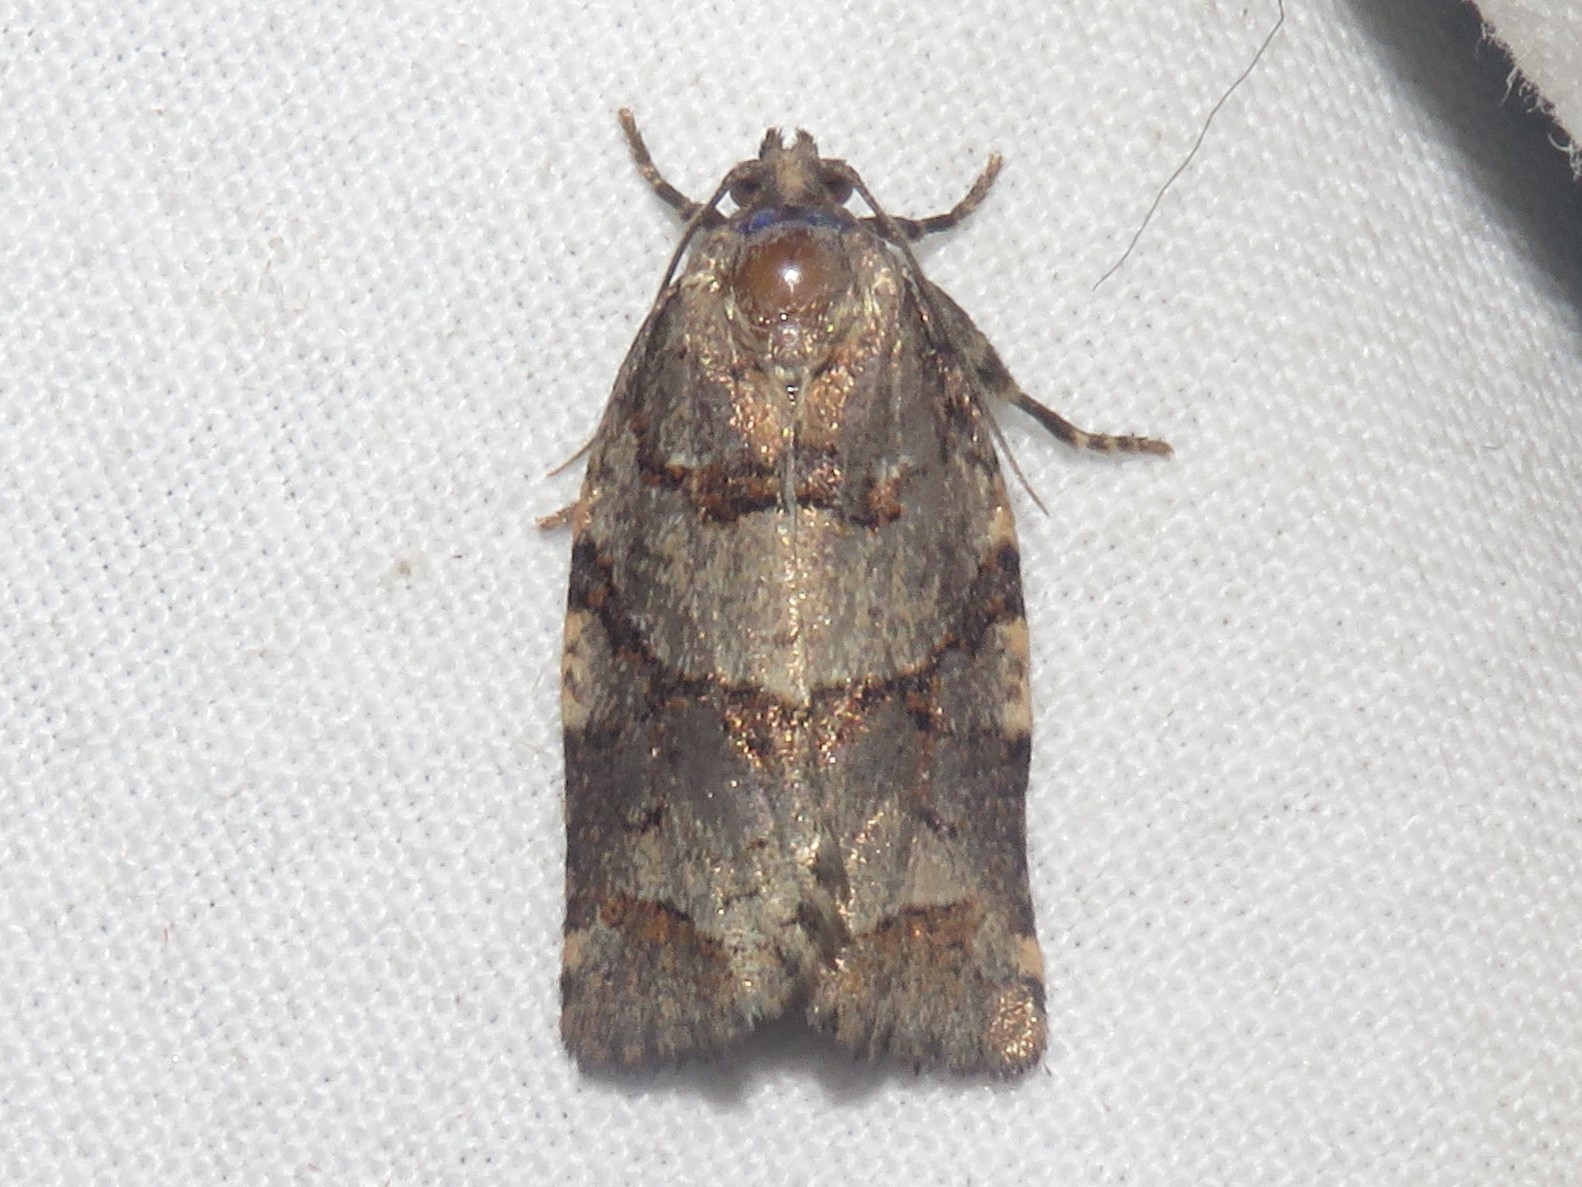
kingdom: Animalia
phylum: Arthropoda
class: Insecta
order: Lepidoptera
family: Tortricidae
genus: Archips
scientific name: Archips alberta
